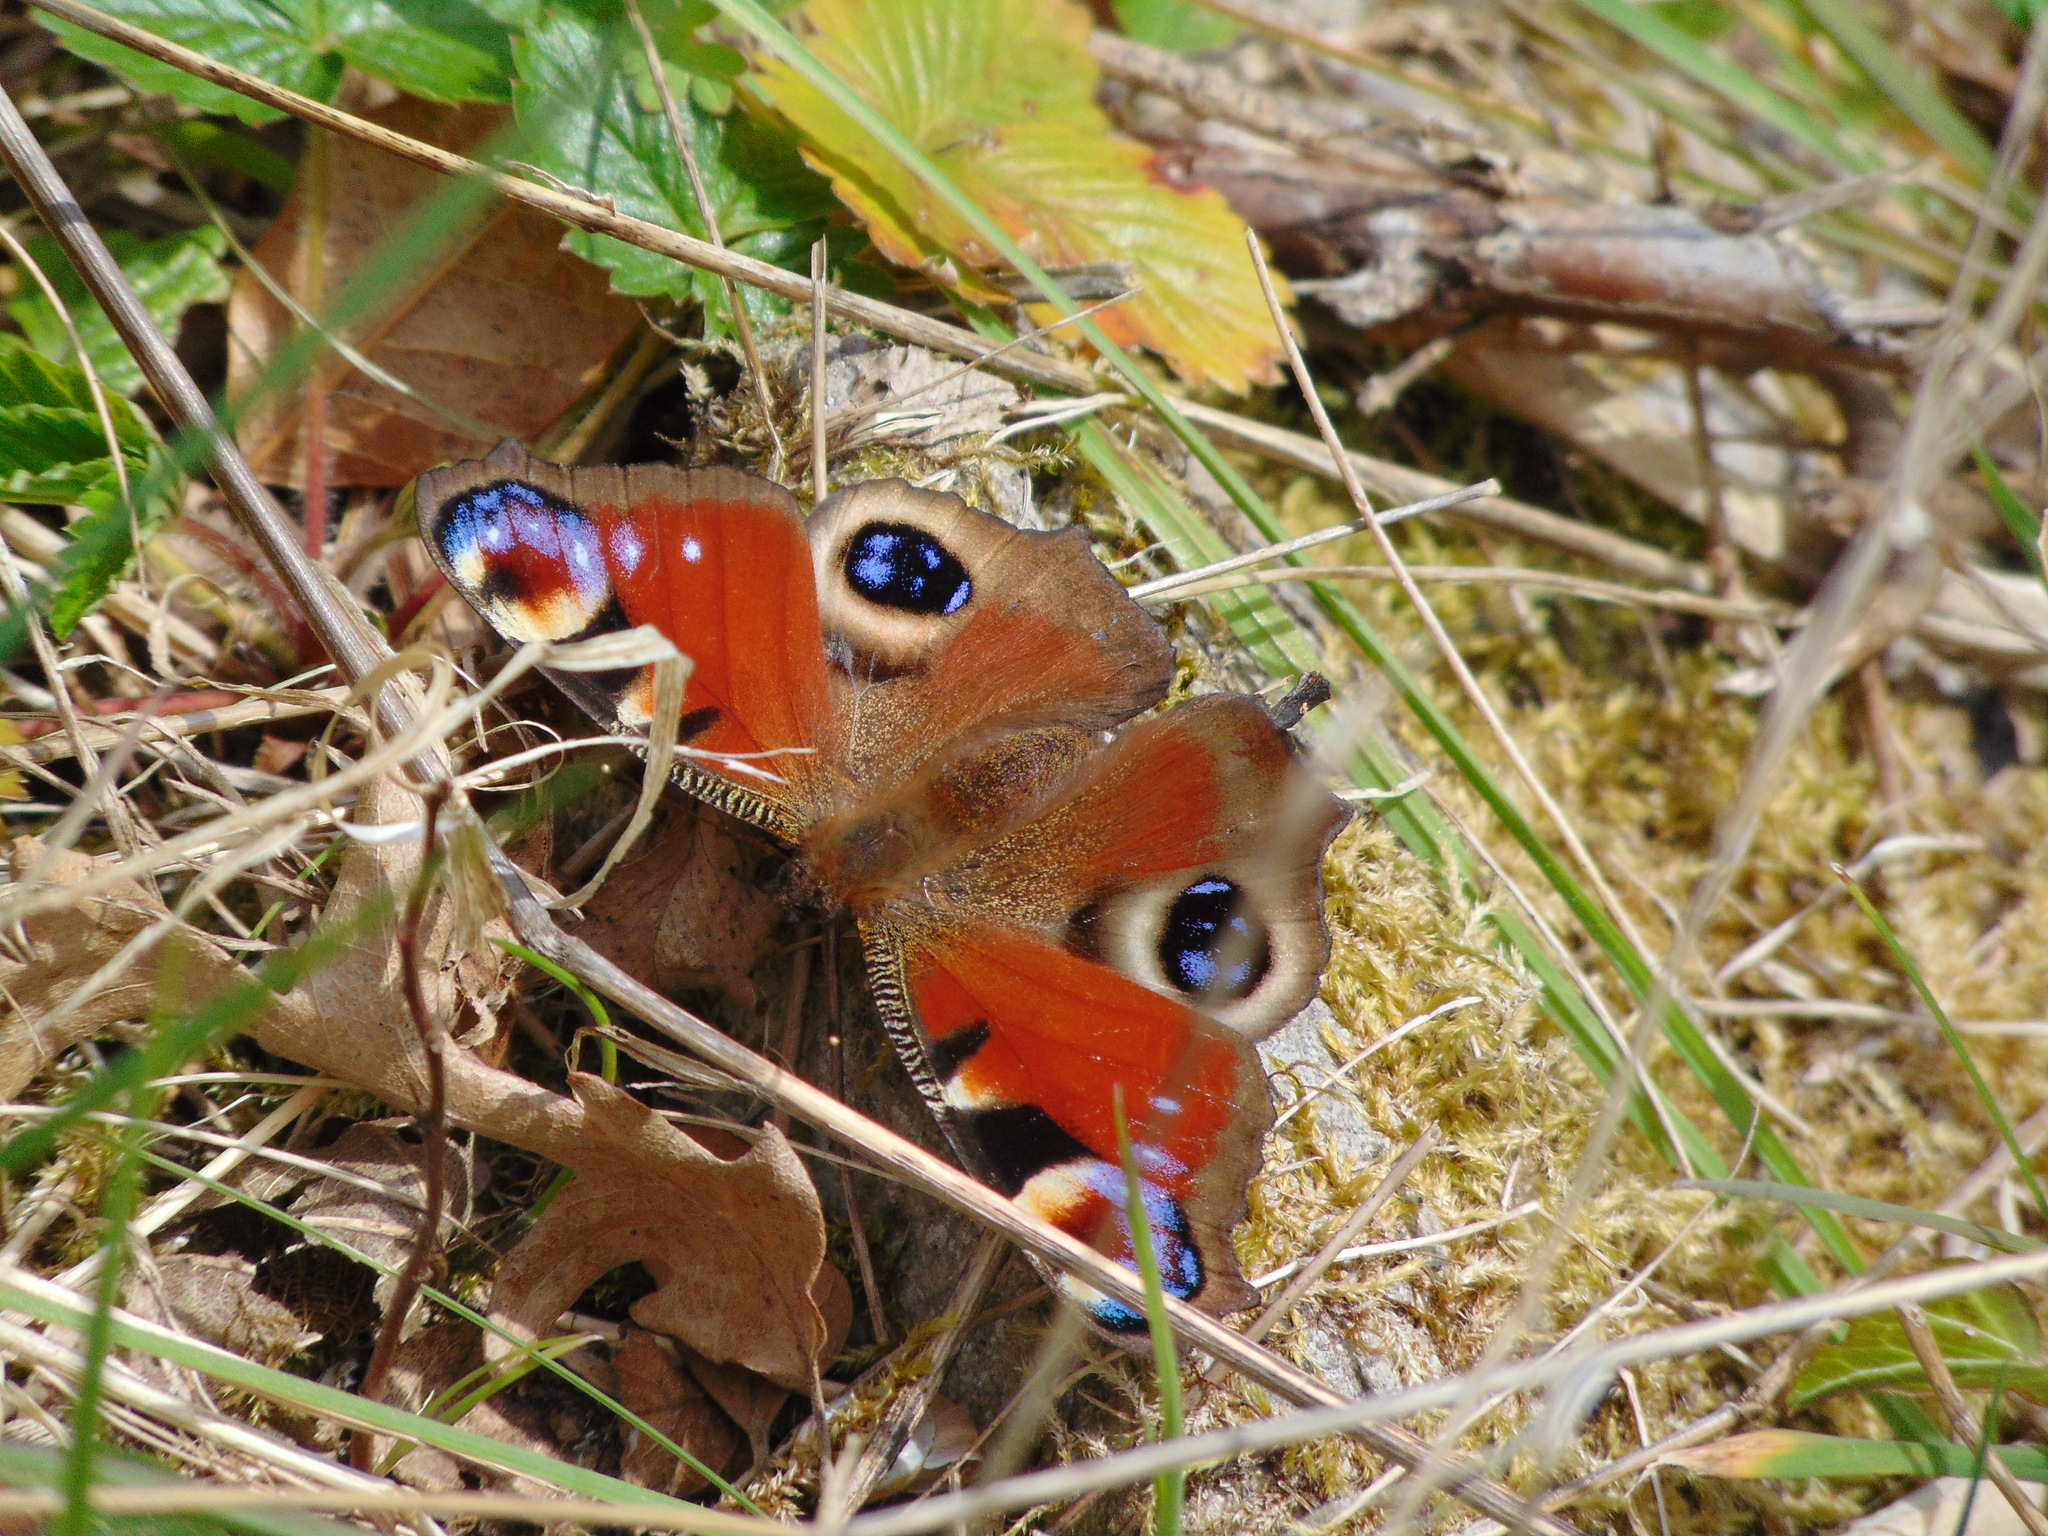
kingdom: Animalia
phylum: Arthropoda
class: Insecta
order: Lepidoptera
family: Nymphalidae
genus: Aglais
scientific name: Aglais io
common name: Peacock
